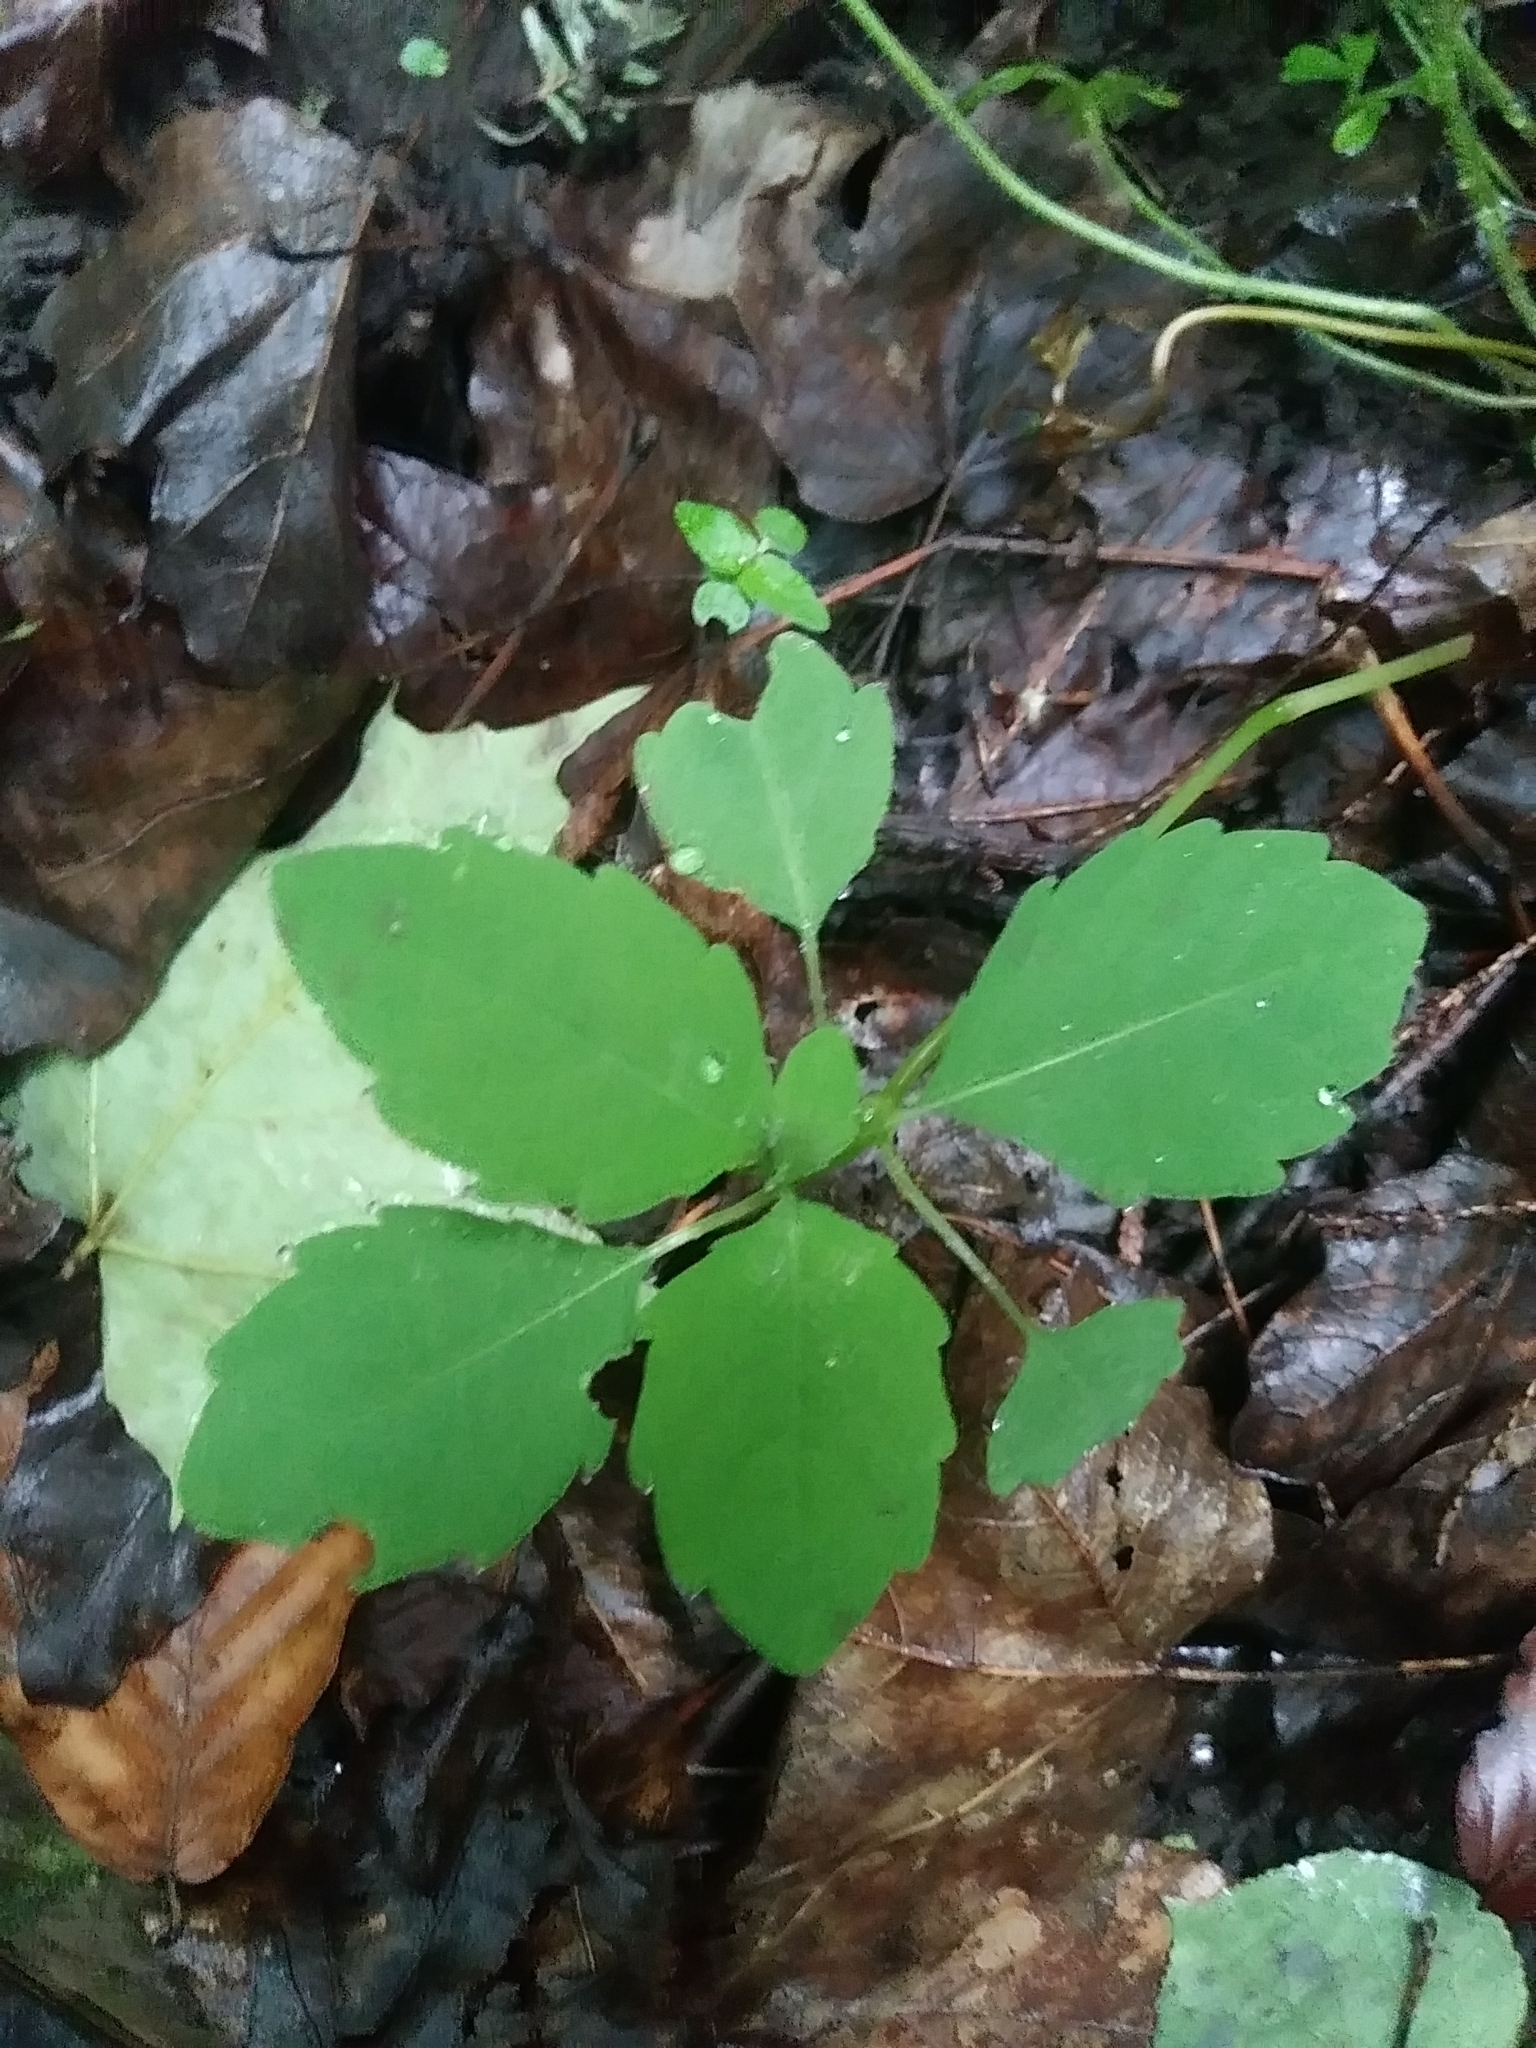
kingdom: Plantae
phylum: Tracheophyta
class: Magnoliopsida
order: Ericales
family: Balsaminaceae
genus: Impatiens
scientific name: Impatiens
